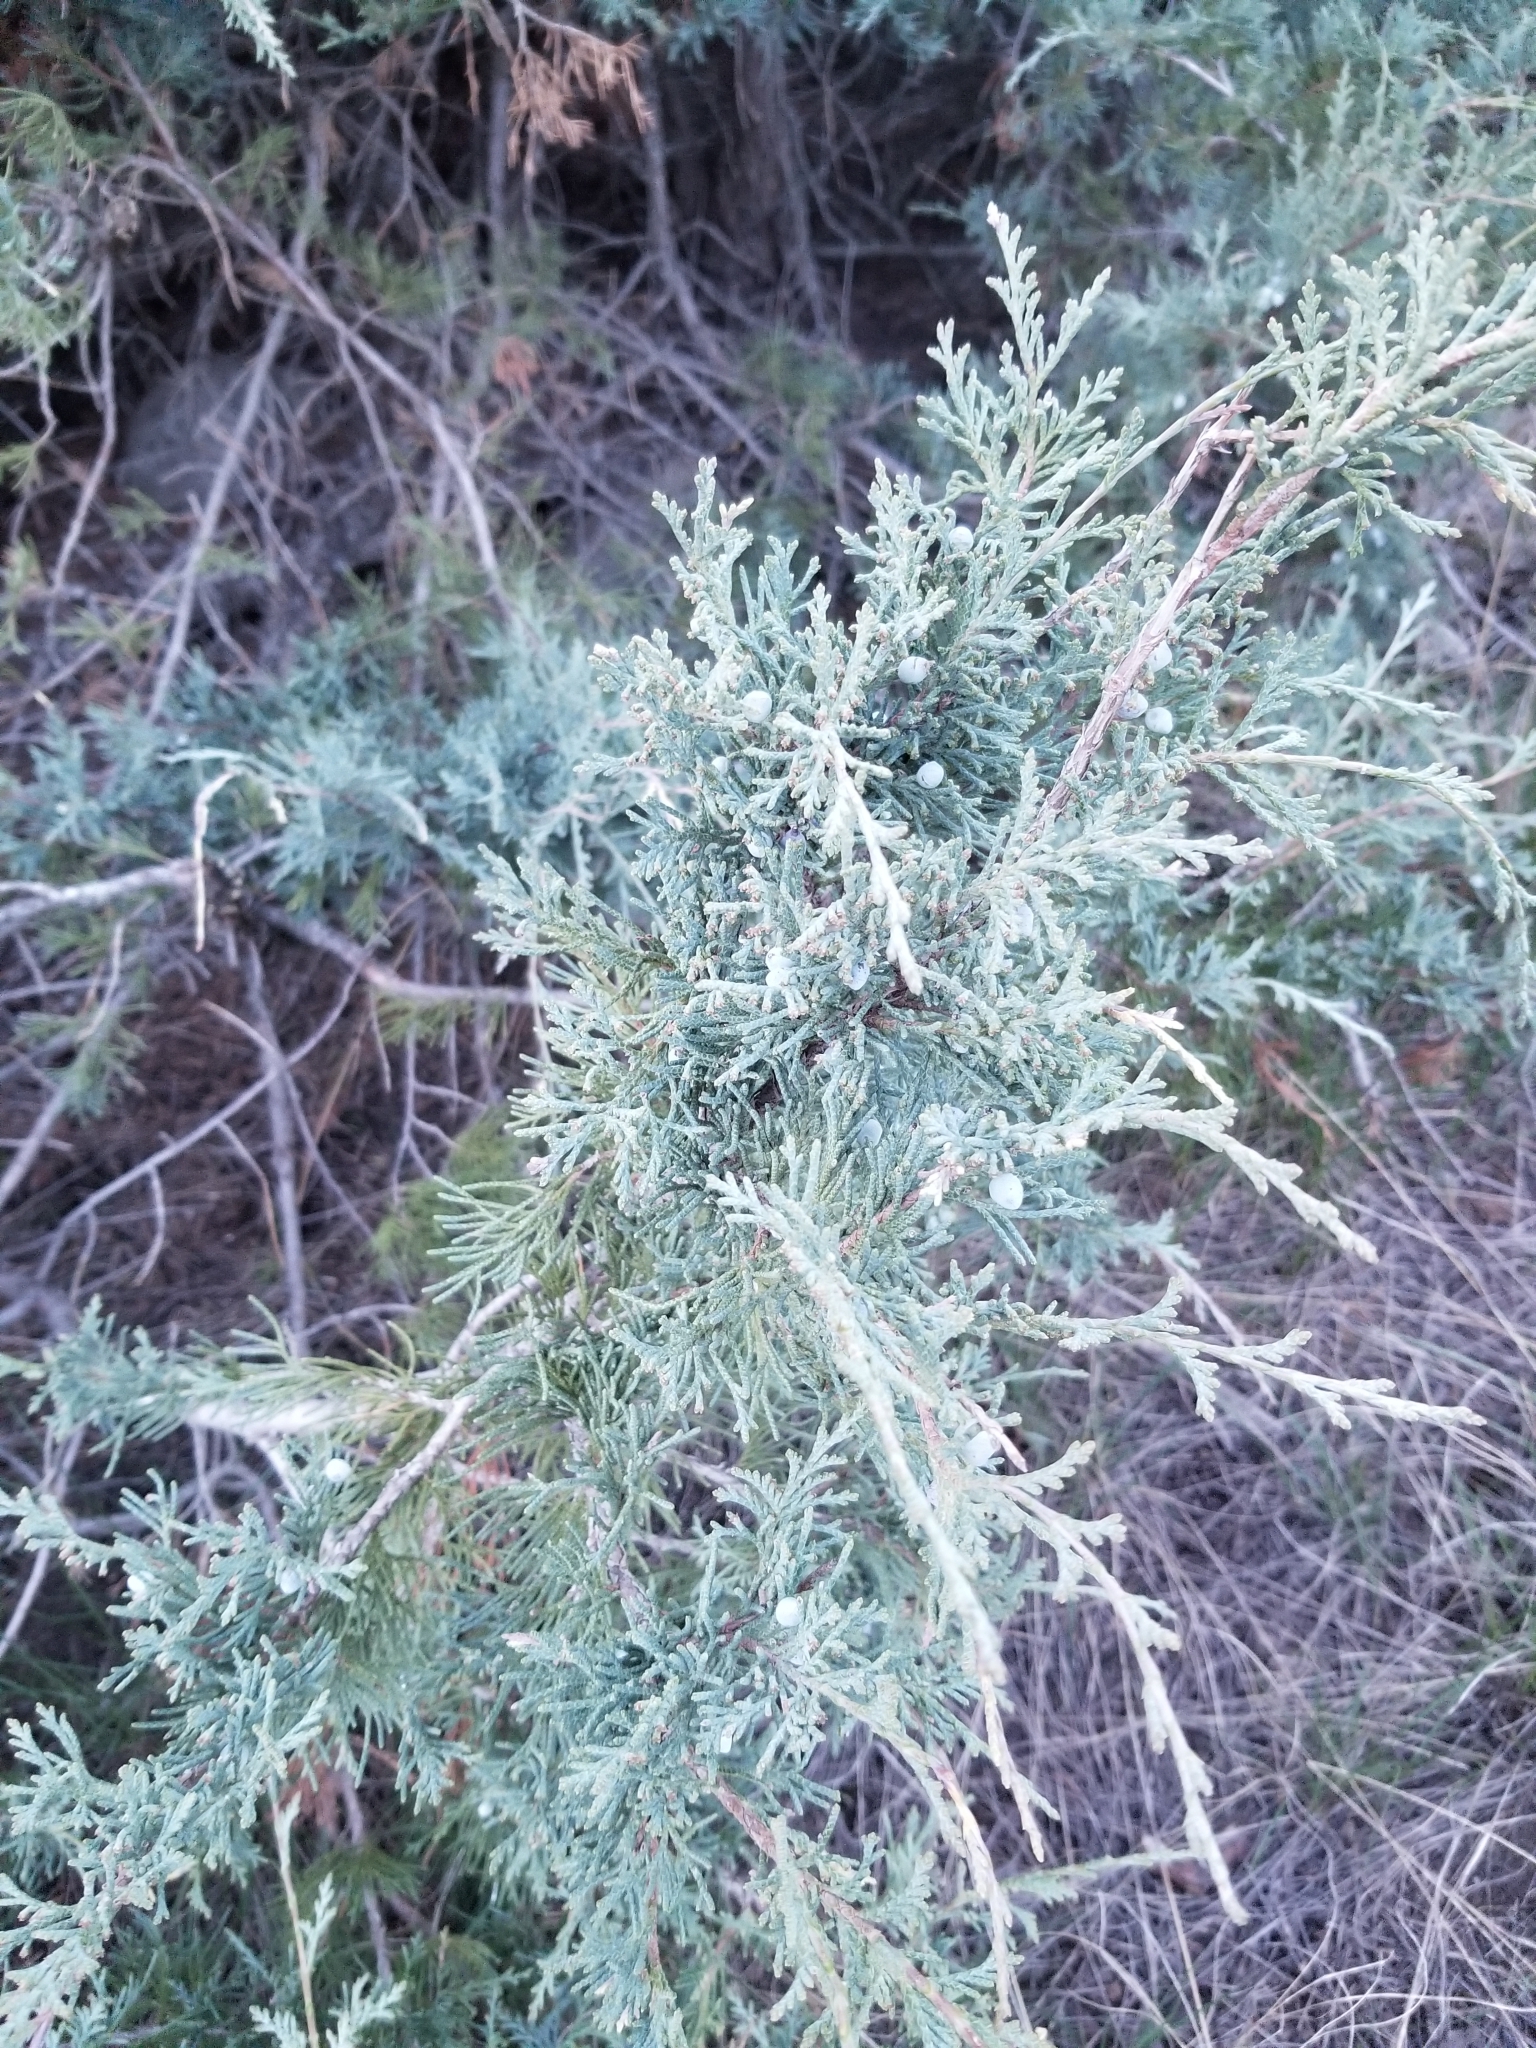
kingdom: Plantae
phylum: Tracheophyta
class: Pinopsida
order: Pinales
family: Cupressaceae
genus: Juniperus
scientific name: Juniperus scopulorum
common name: Rocky mountain juniper
